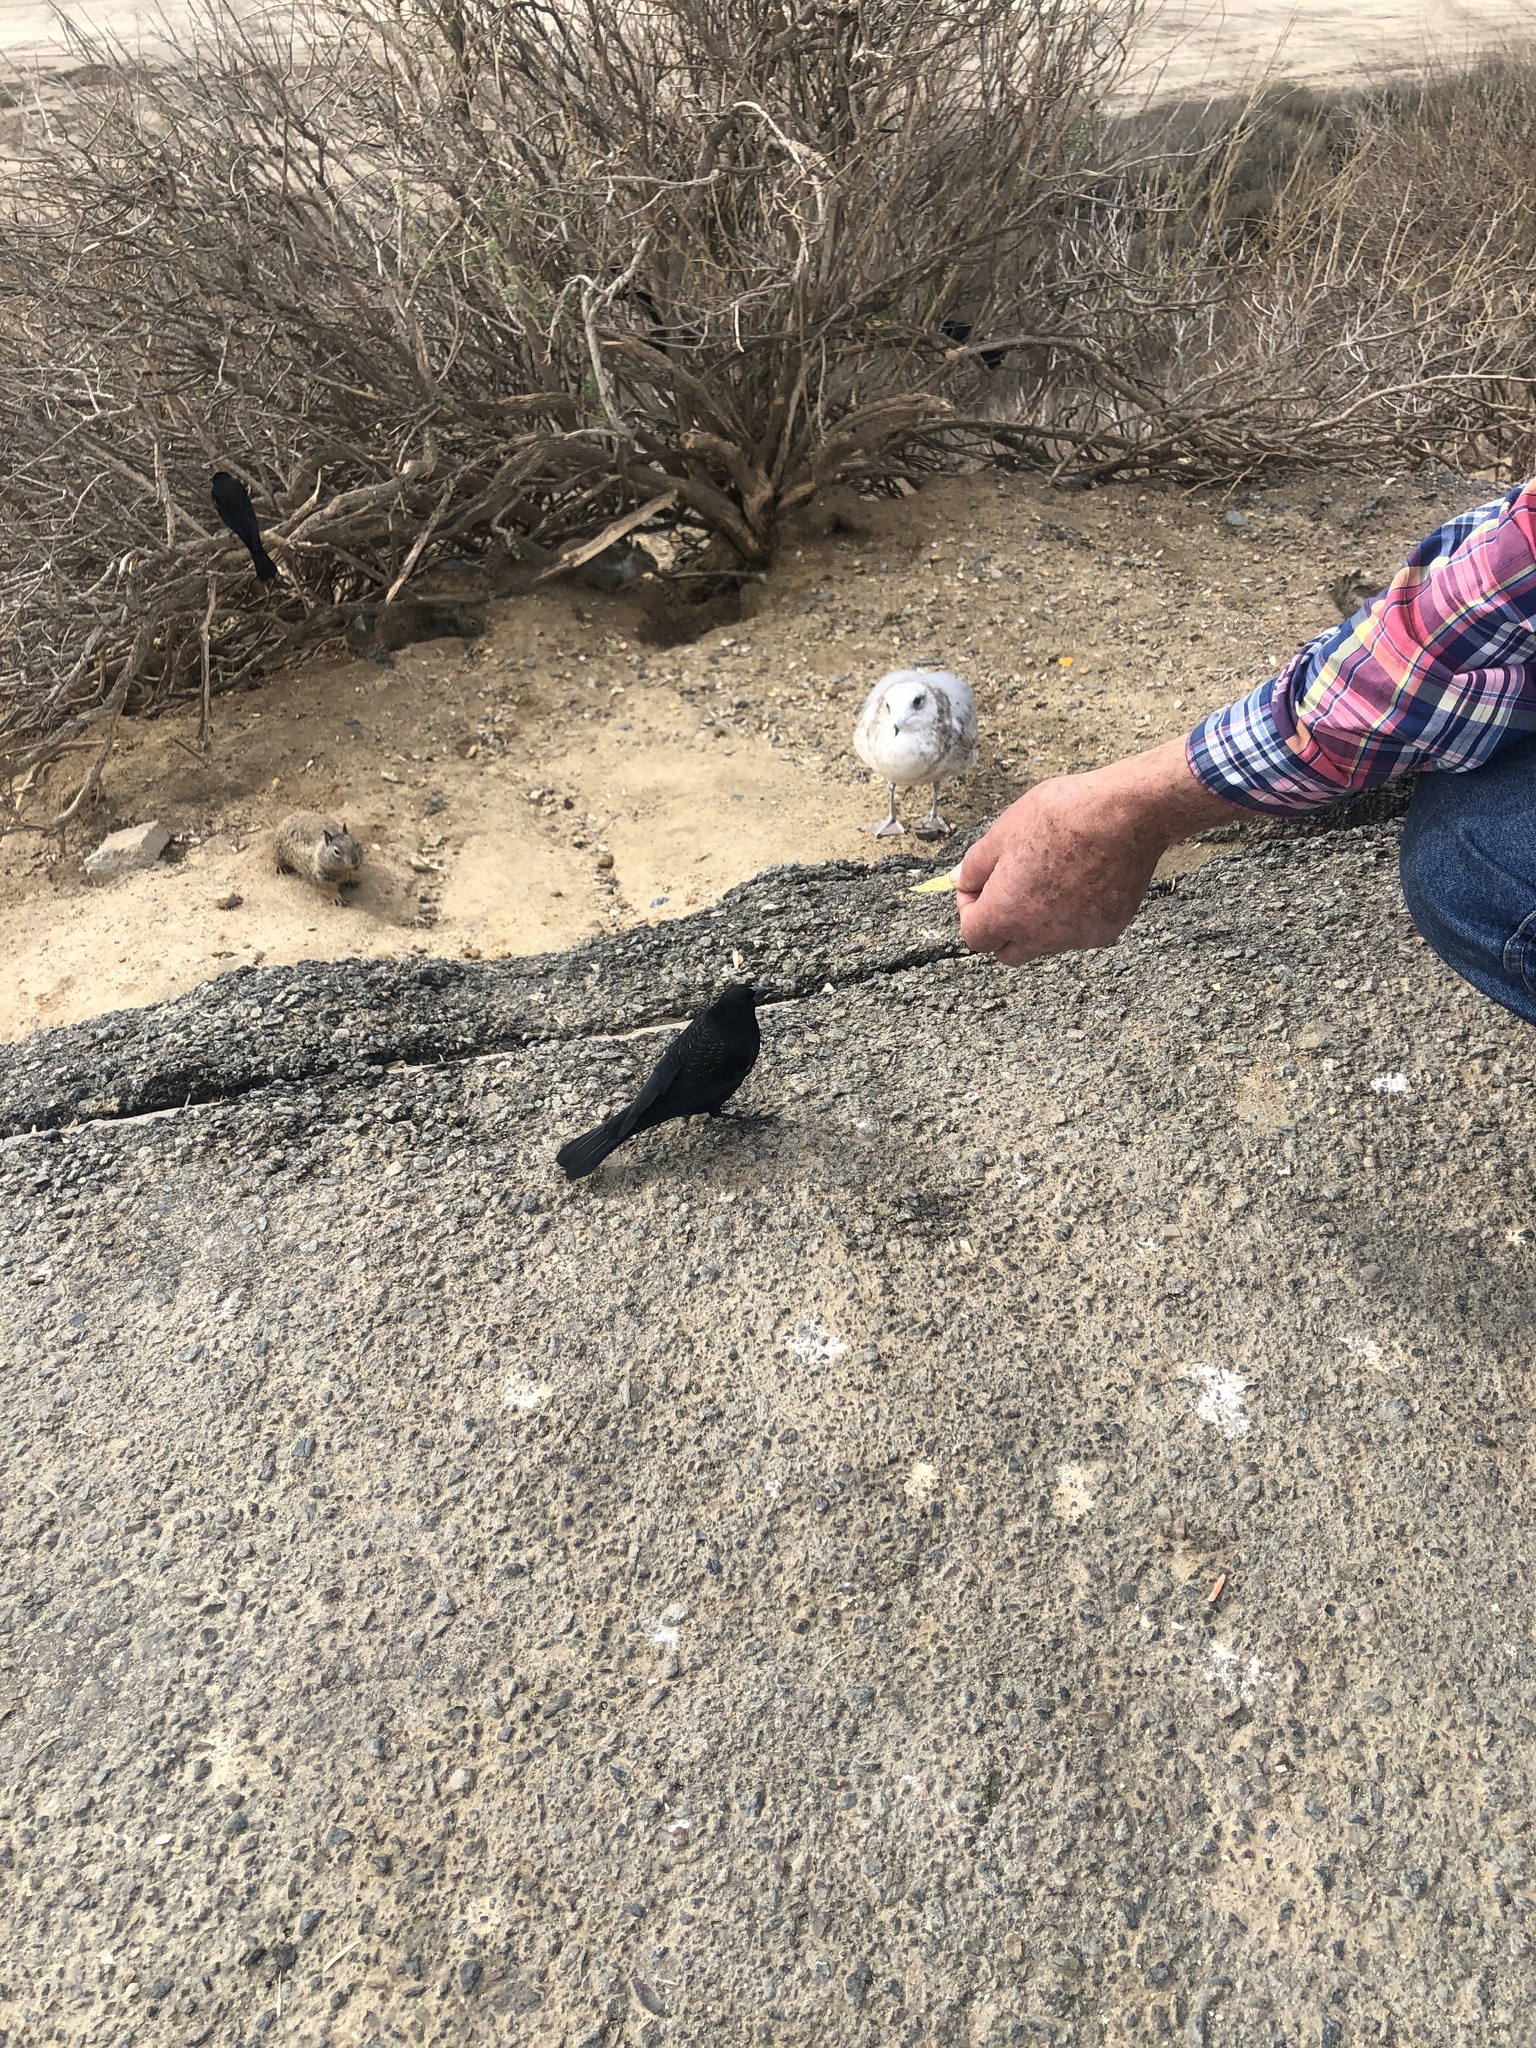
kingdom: Animalia
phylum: Chordata
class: Aves
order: Passeriformes
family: Icteridae
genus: Agelaius
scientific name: Agelaius phoeniceus
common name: Red-winged blackbird
